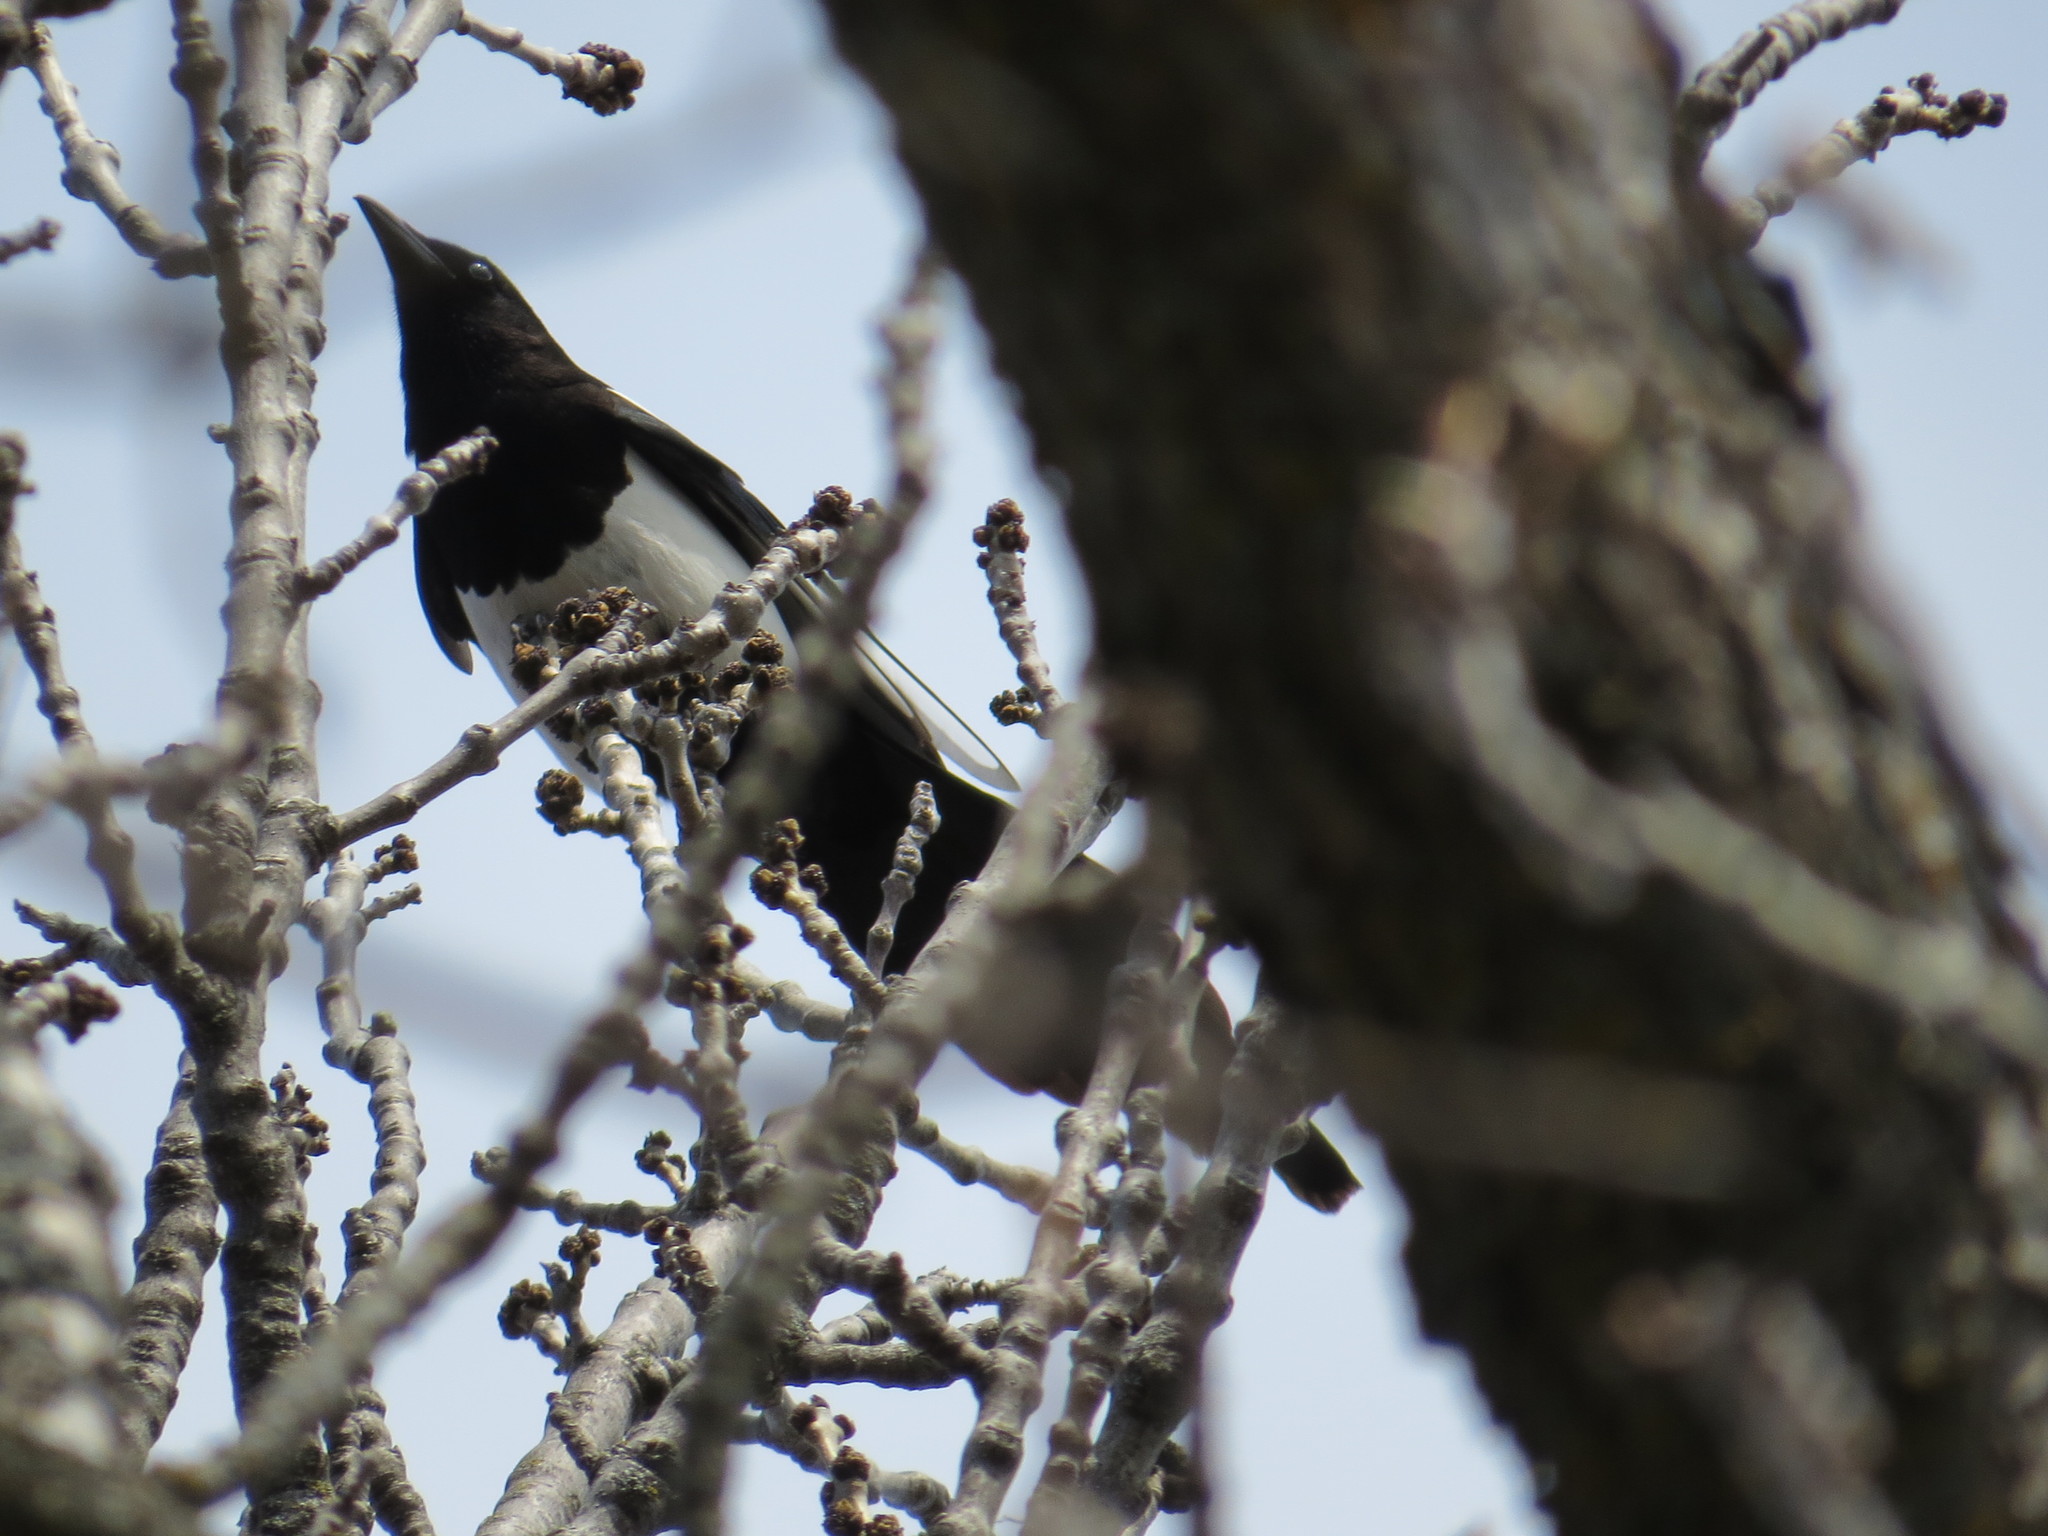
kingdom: Animalia
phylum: Chordata
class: Aves
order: Passeriformes
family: Corvidae
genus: Pica
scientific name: Pica hudsonia
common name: Black-billed magpie
